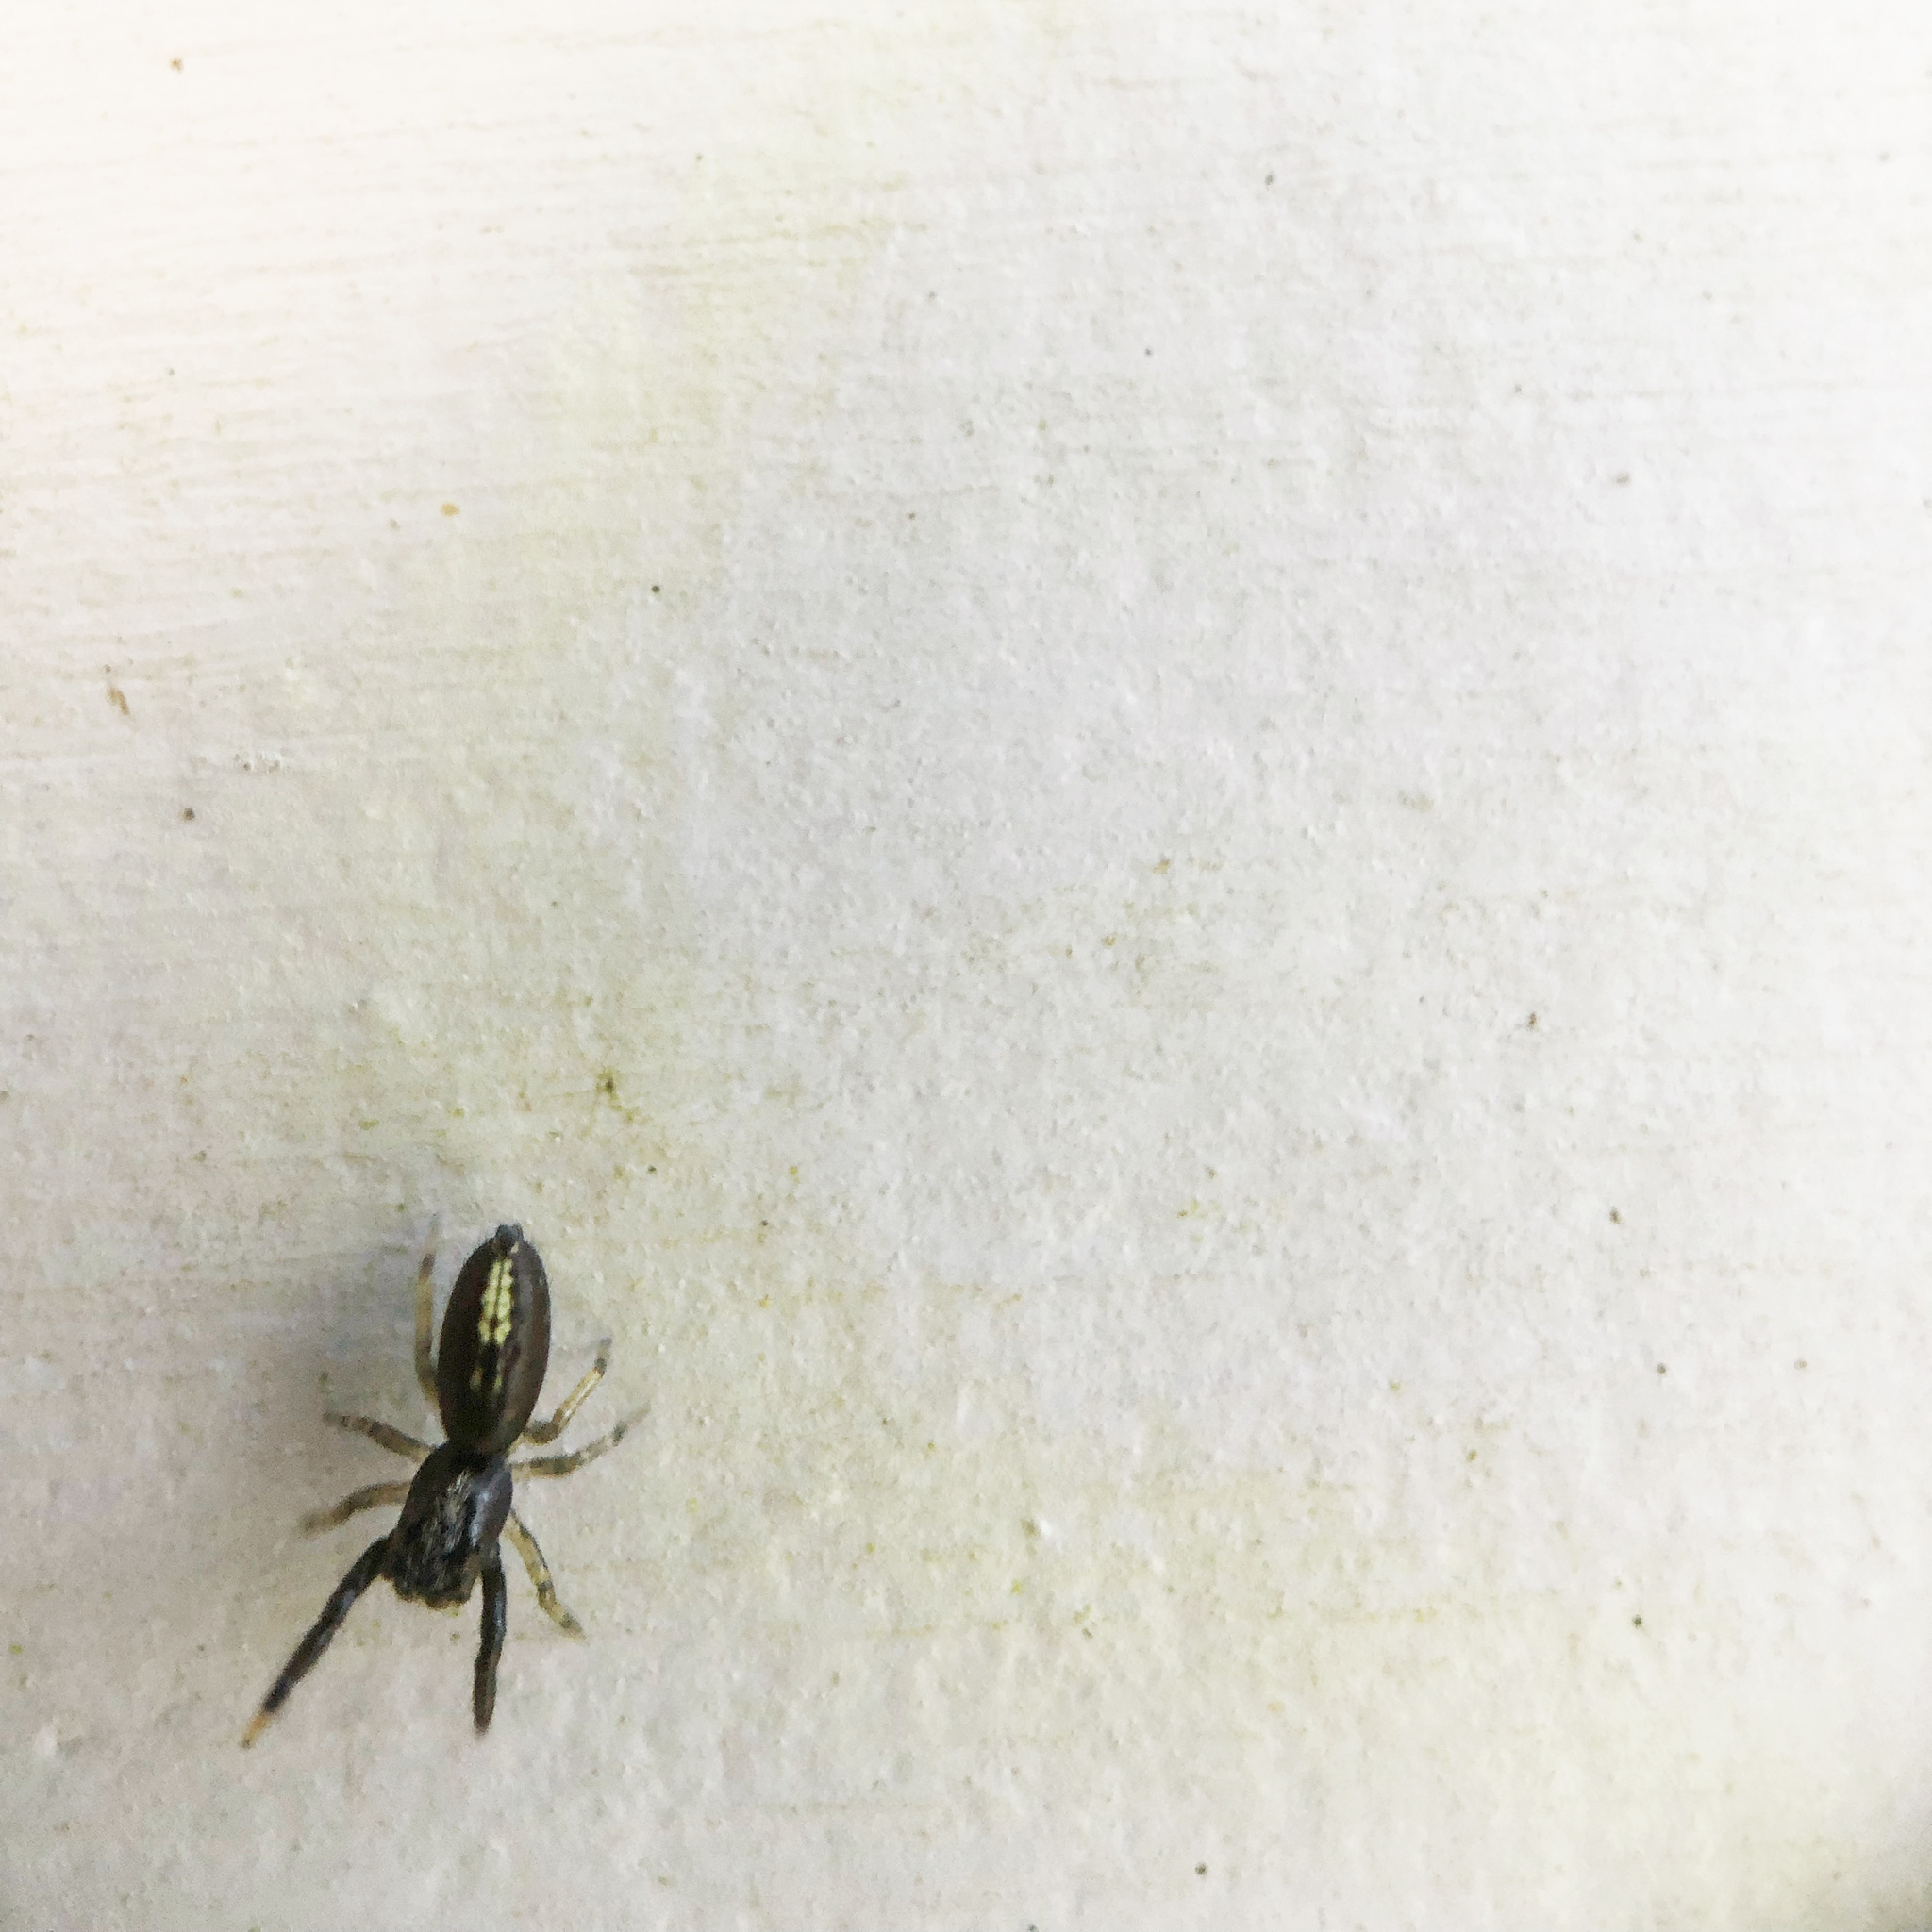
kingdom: Animalia
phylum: Arthropoda
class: Arachnida
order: Araneae
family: Salticidae
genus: Trite
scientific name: Trite planiceps
